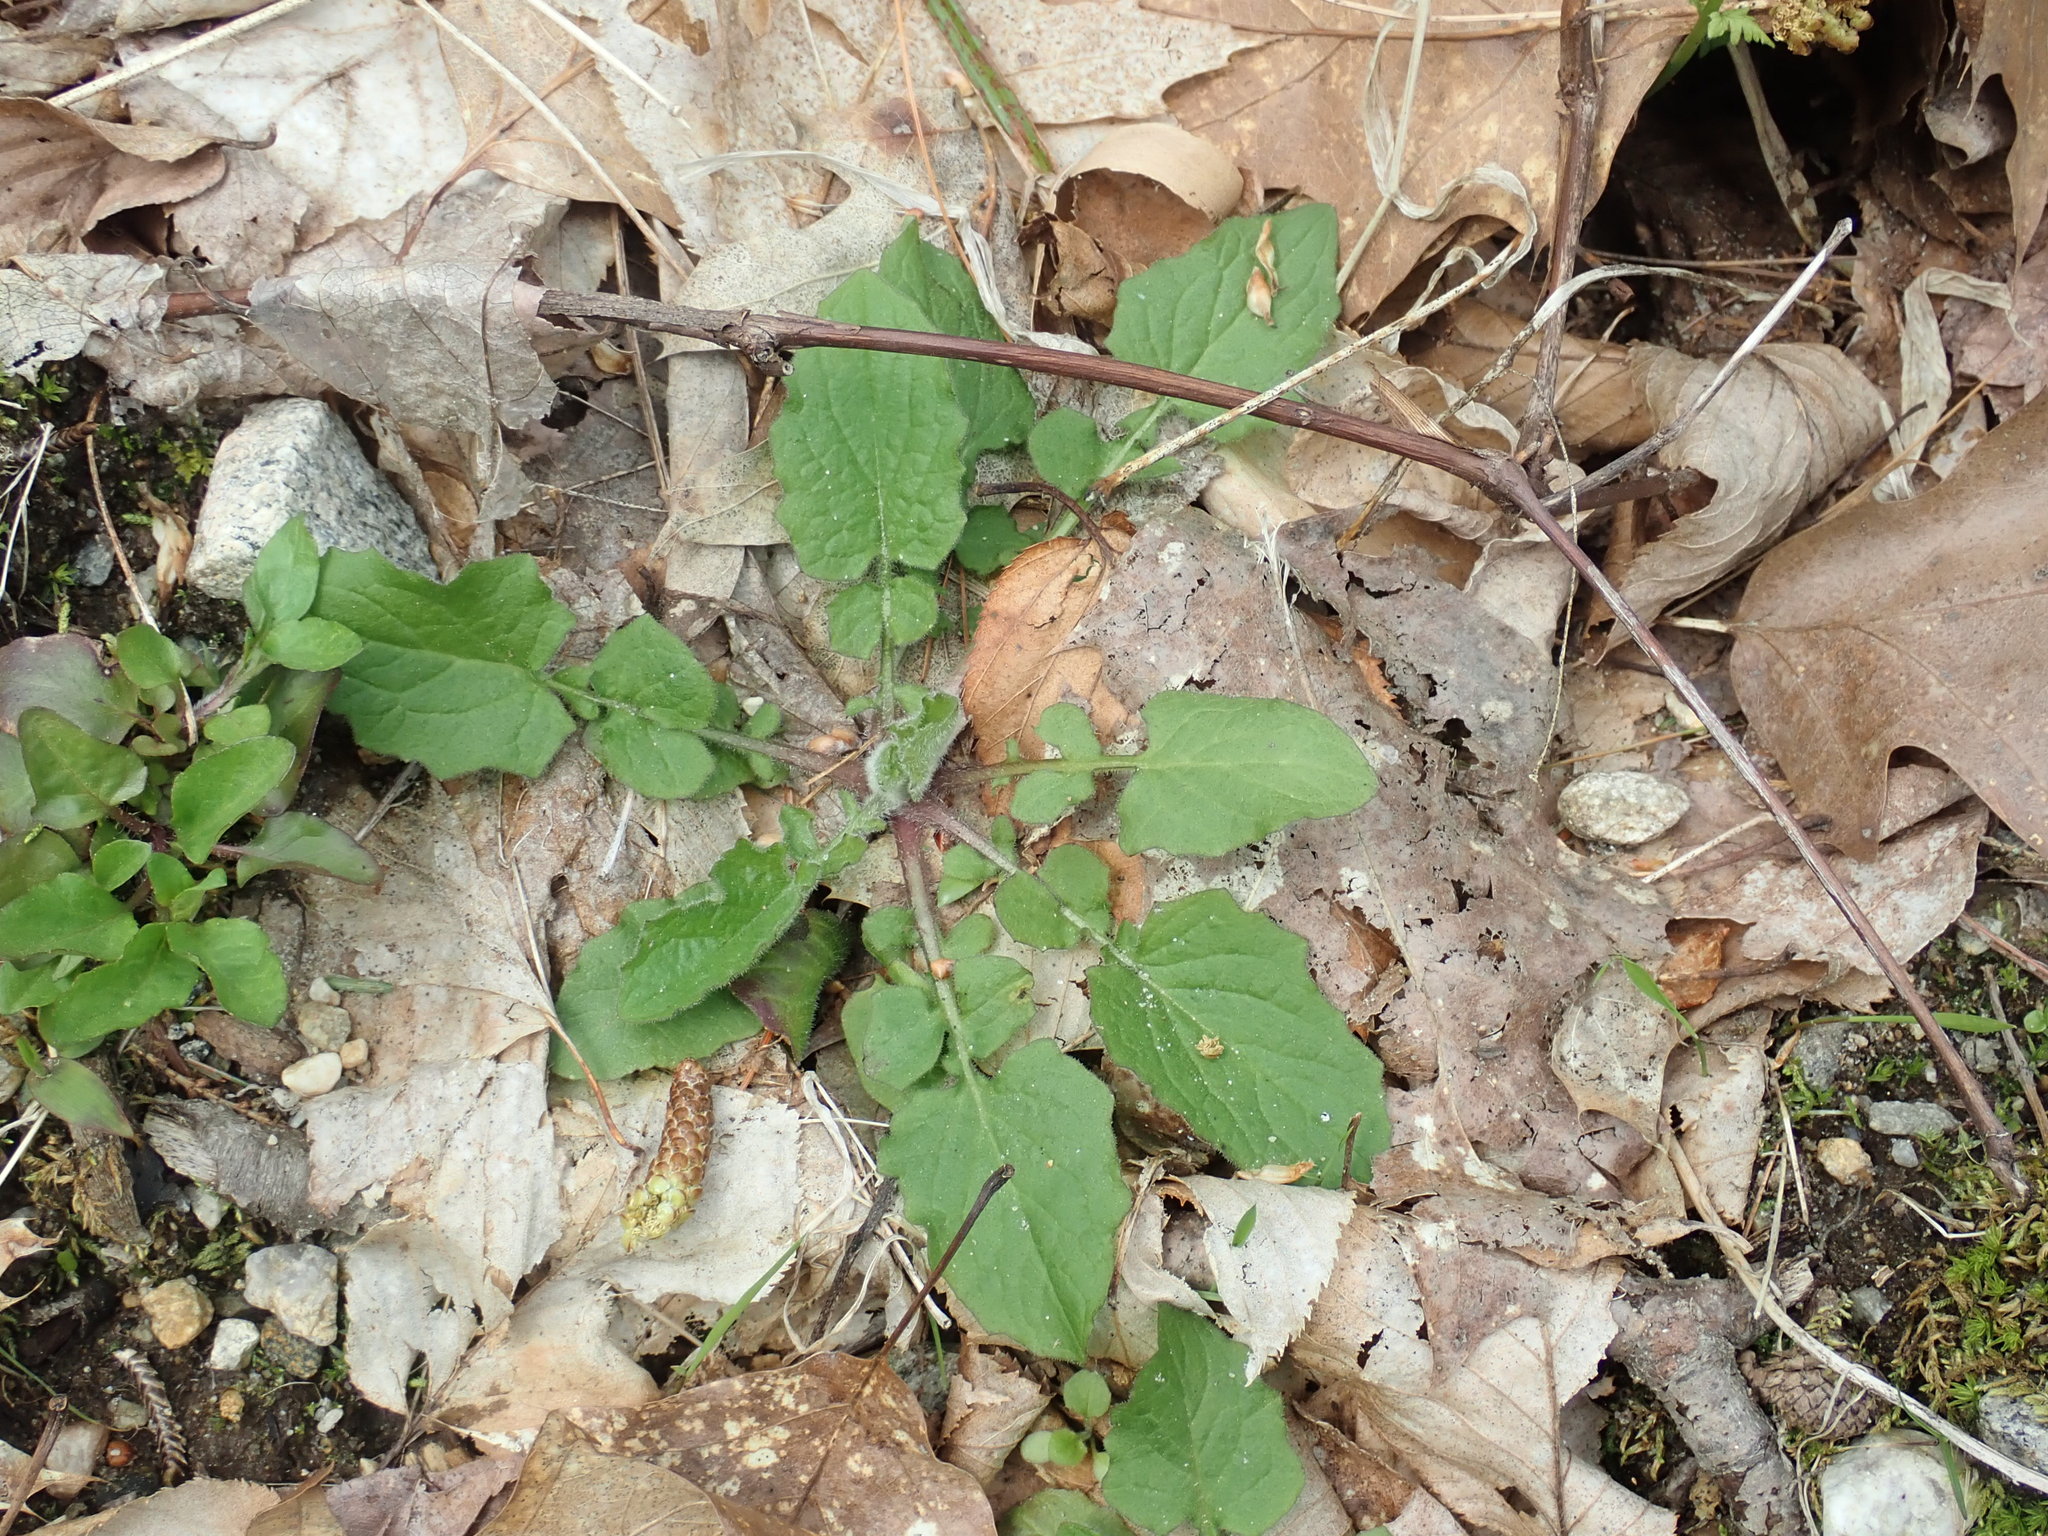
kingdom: Plantae
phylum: Tracheophyta
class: Magnoliopsida
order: Asterales
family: Asteraceae
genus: Lapsana
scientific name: Lapsana communis
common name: Nipplewort
